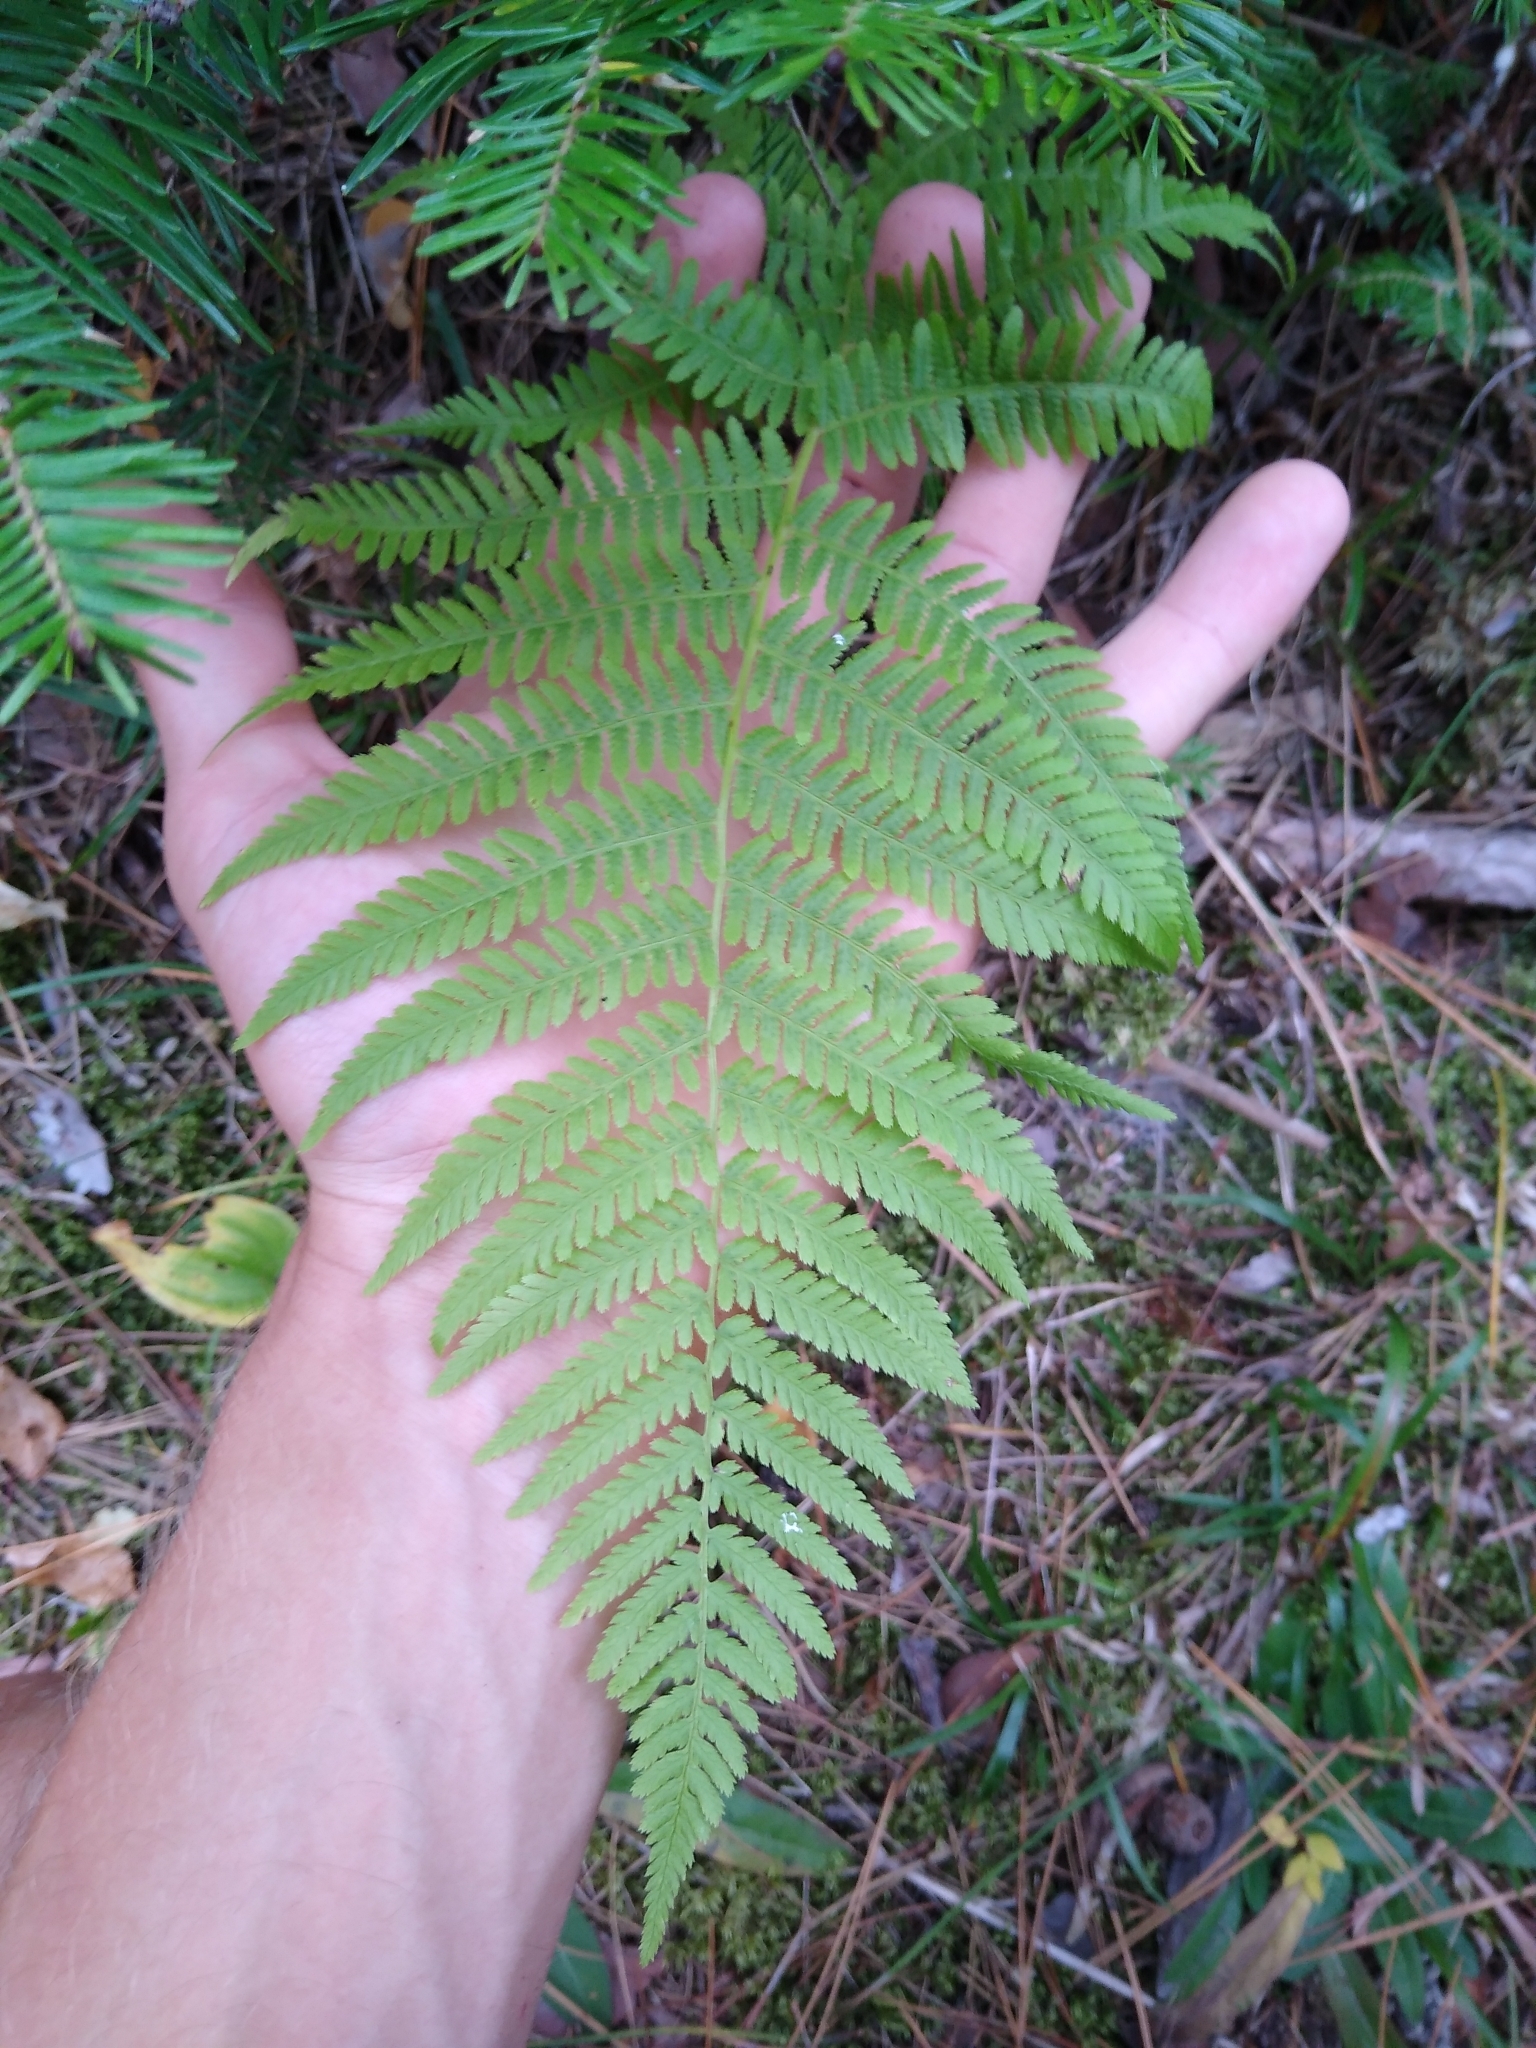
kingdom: Plantae
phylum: Tracheophyta
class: Polypodiopsida
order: Polypodiales
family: Athyriaceae
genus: Athyrium
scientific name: Athyrium angustum
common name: Northern lady fern
